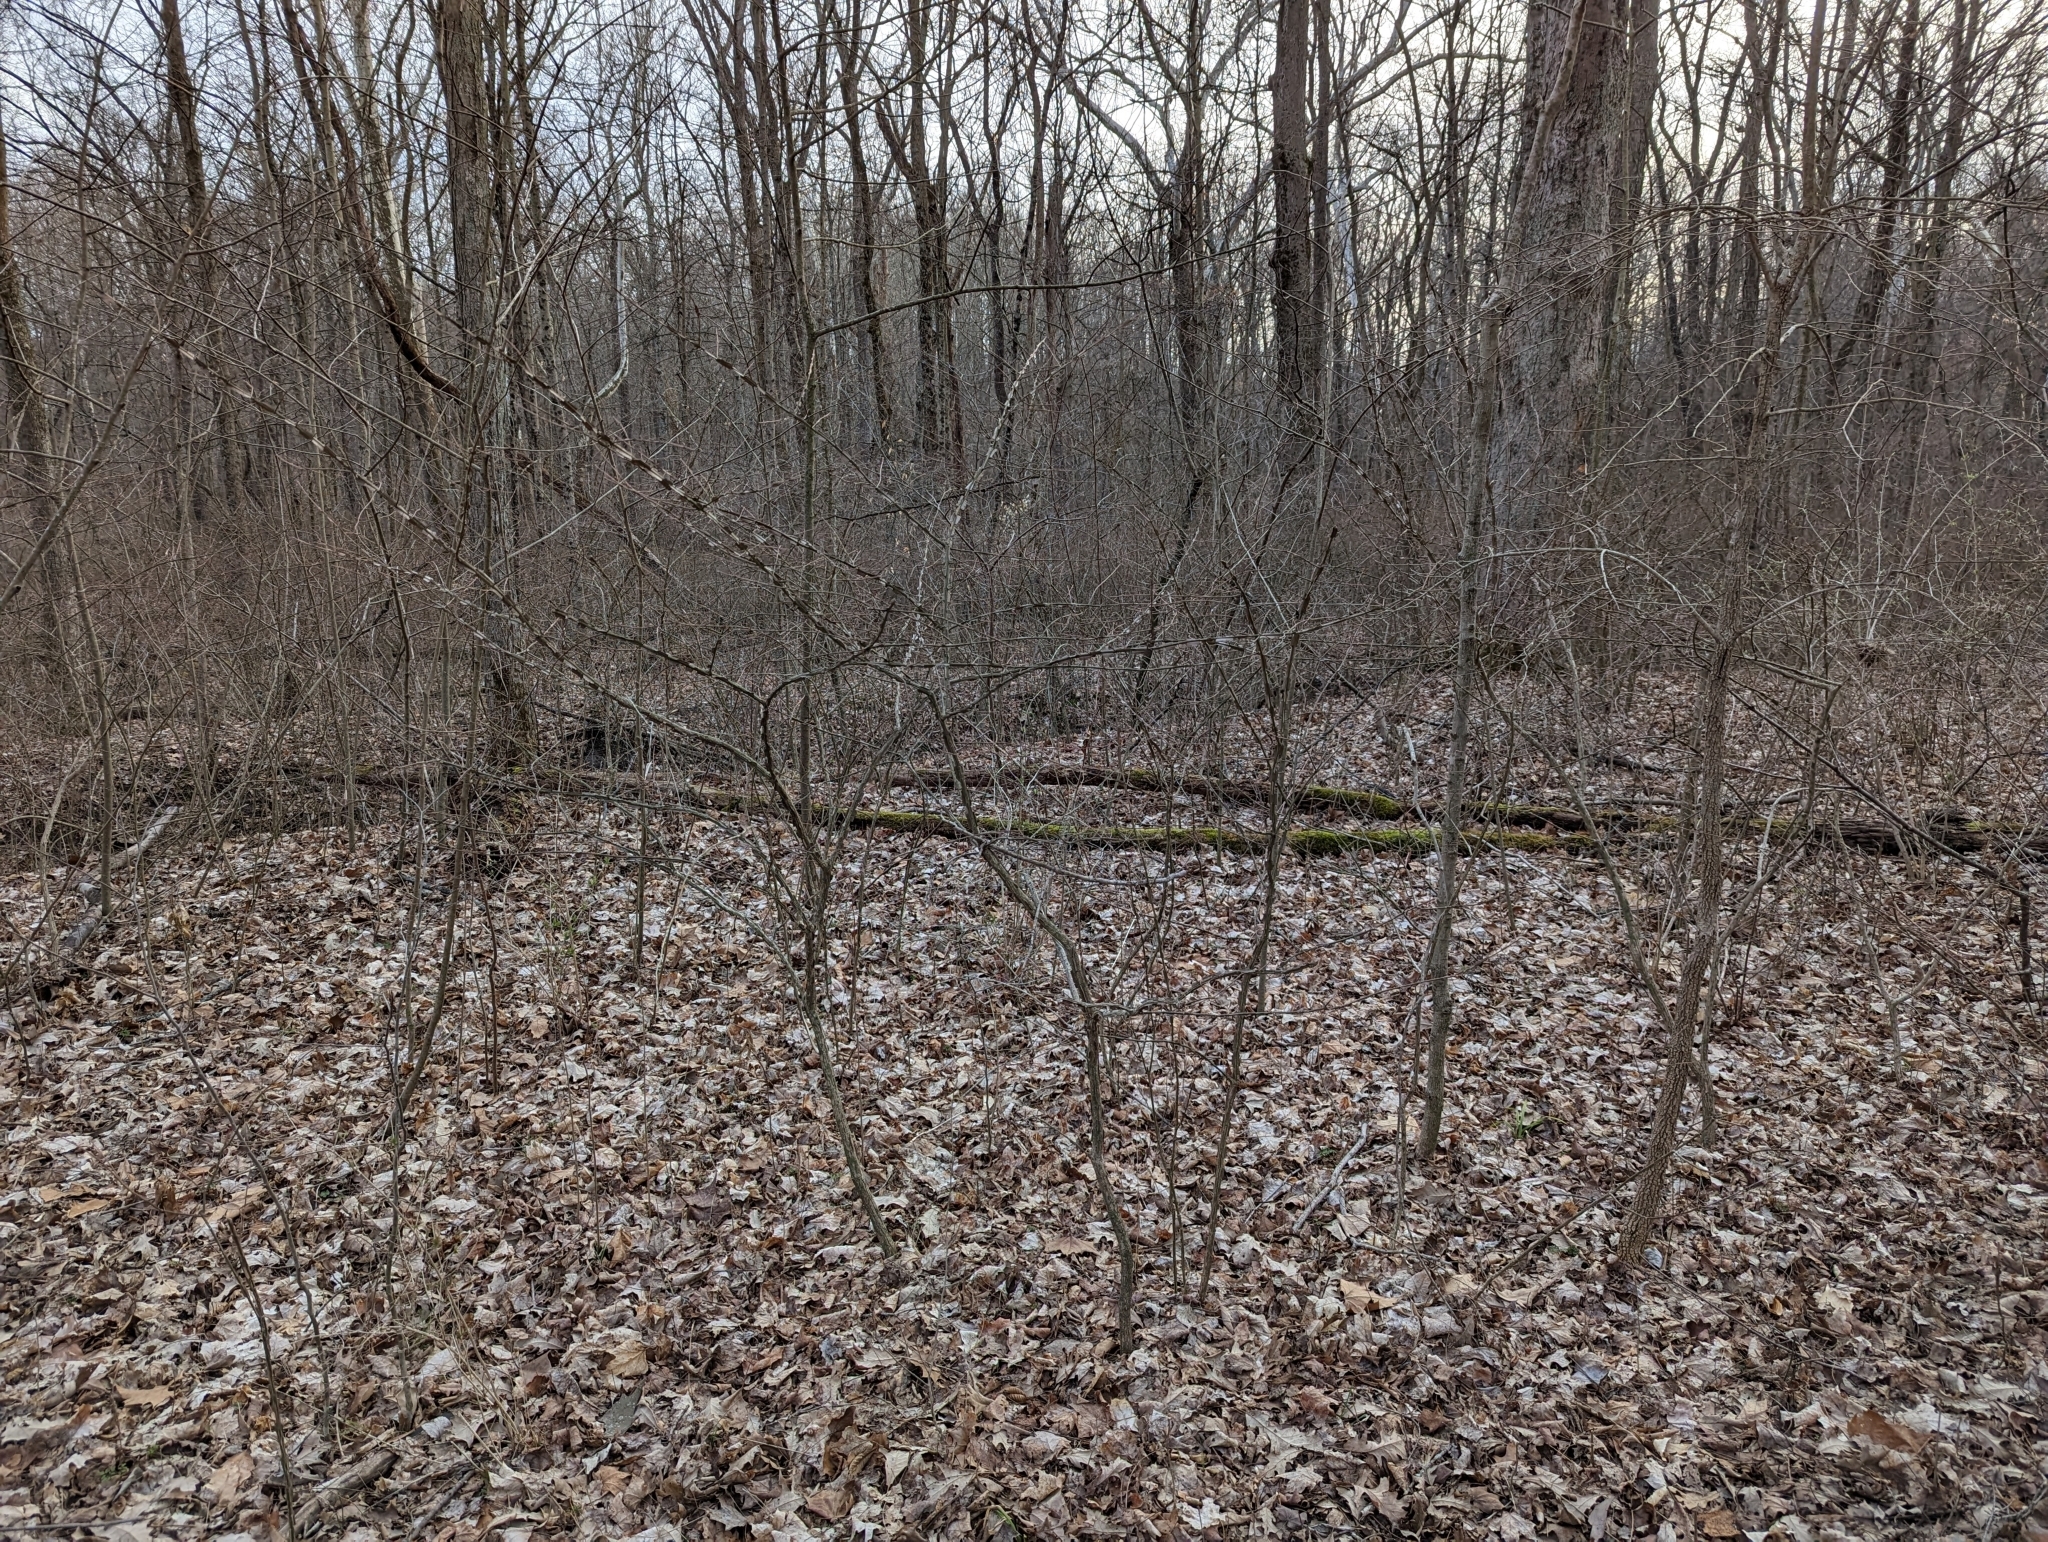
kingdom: Plantae
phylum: Tracheophyta
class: Magnoliopsida
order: Celastrales
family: Celastraceae
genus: Euonymus
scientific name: Euonymus alatus
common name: Winged euonymus
